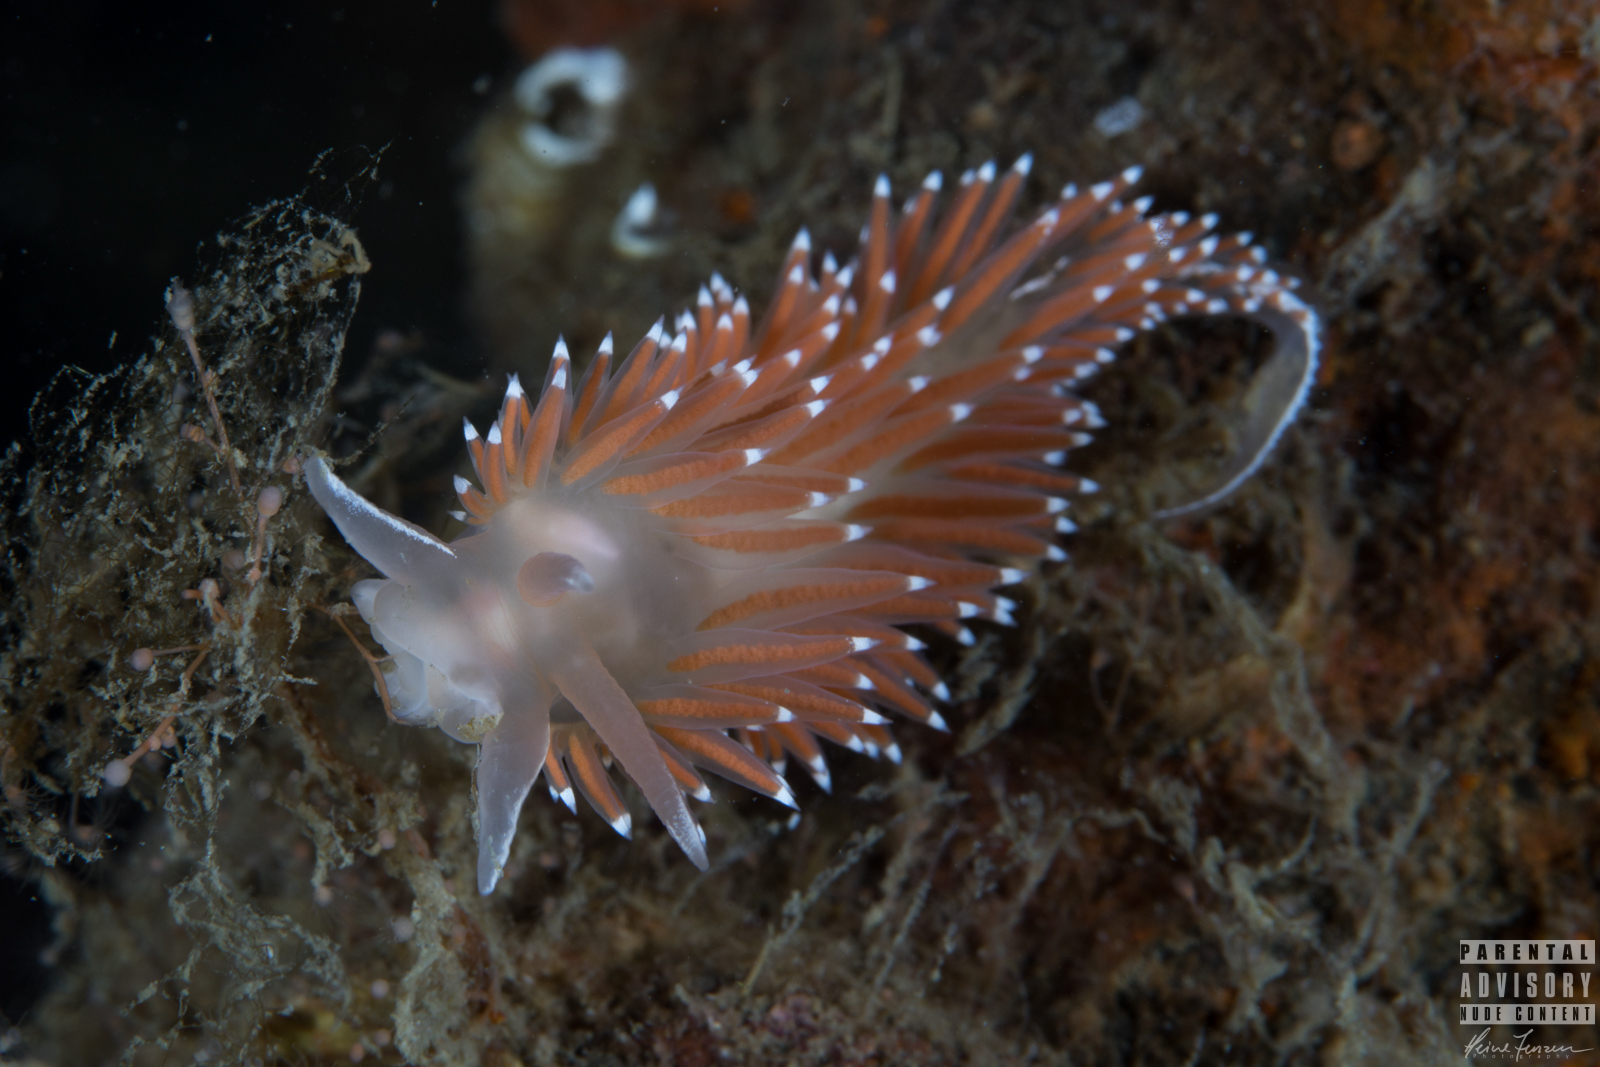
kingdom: Animalia
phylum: Mollusca
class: Gastropoda
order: Nudibranchia
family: Coryphellidae
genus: Coryphella
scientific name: Coryphella verrucosa
